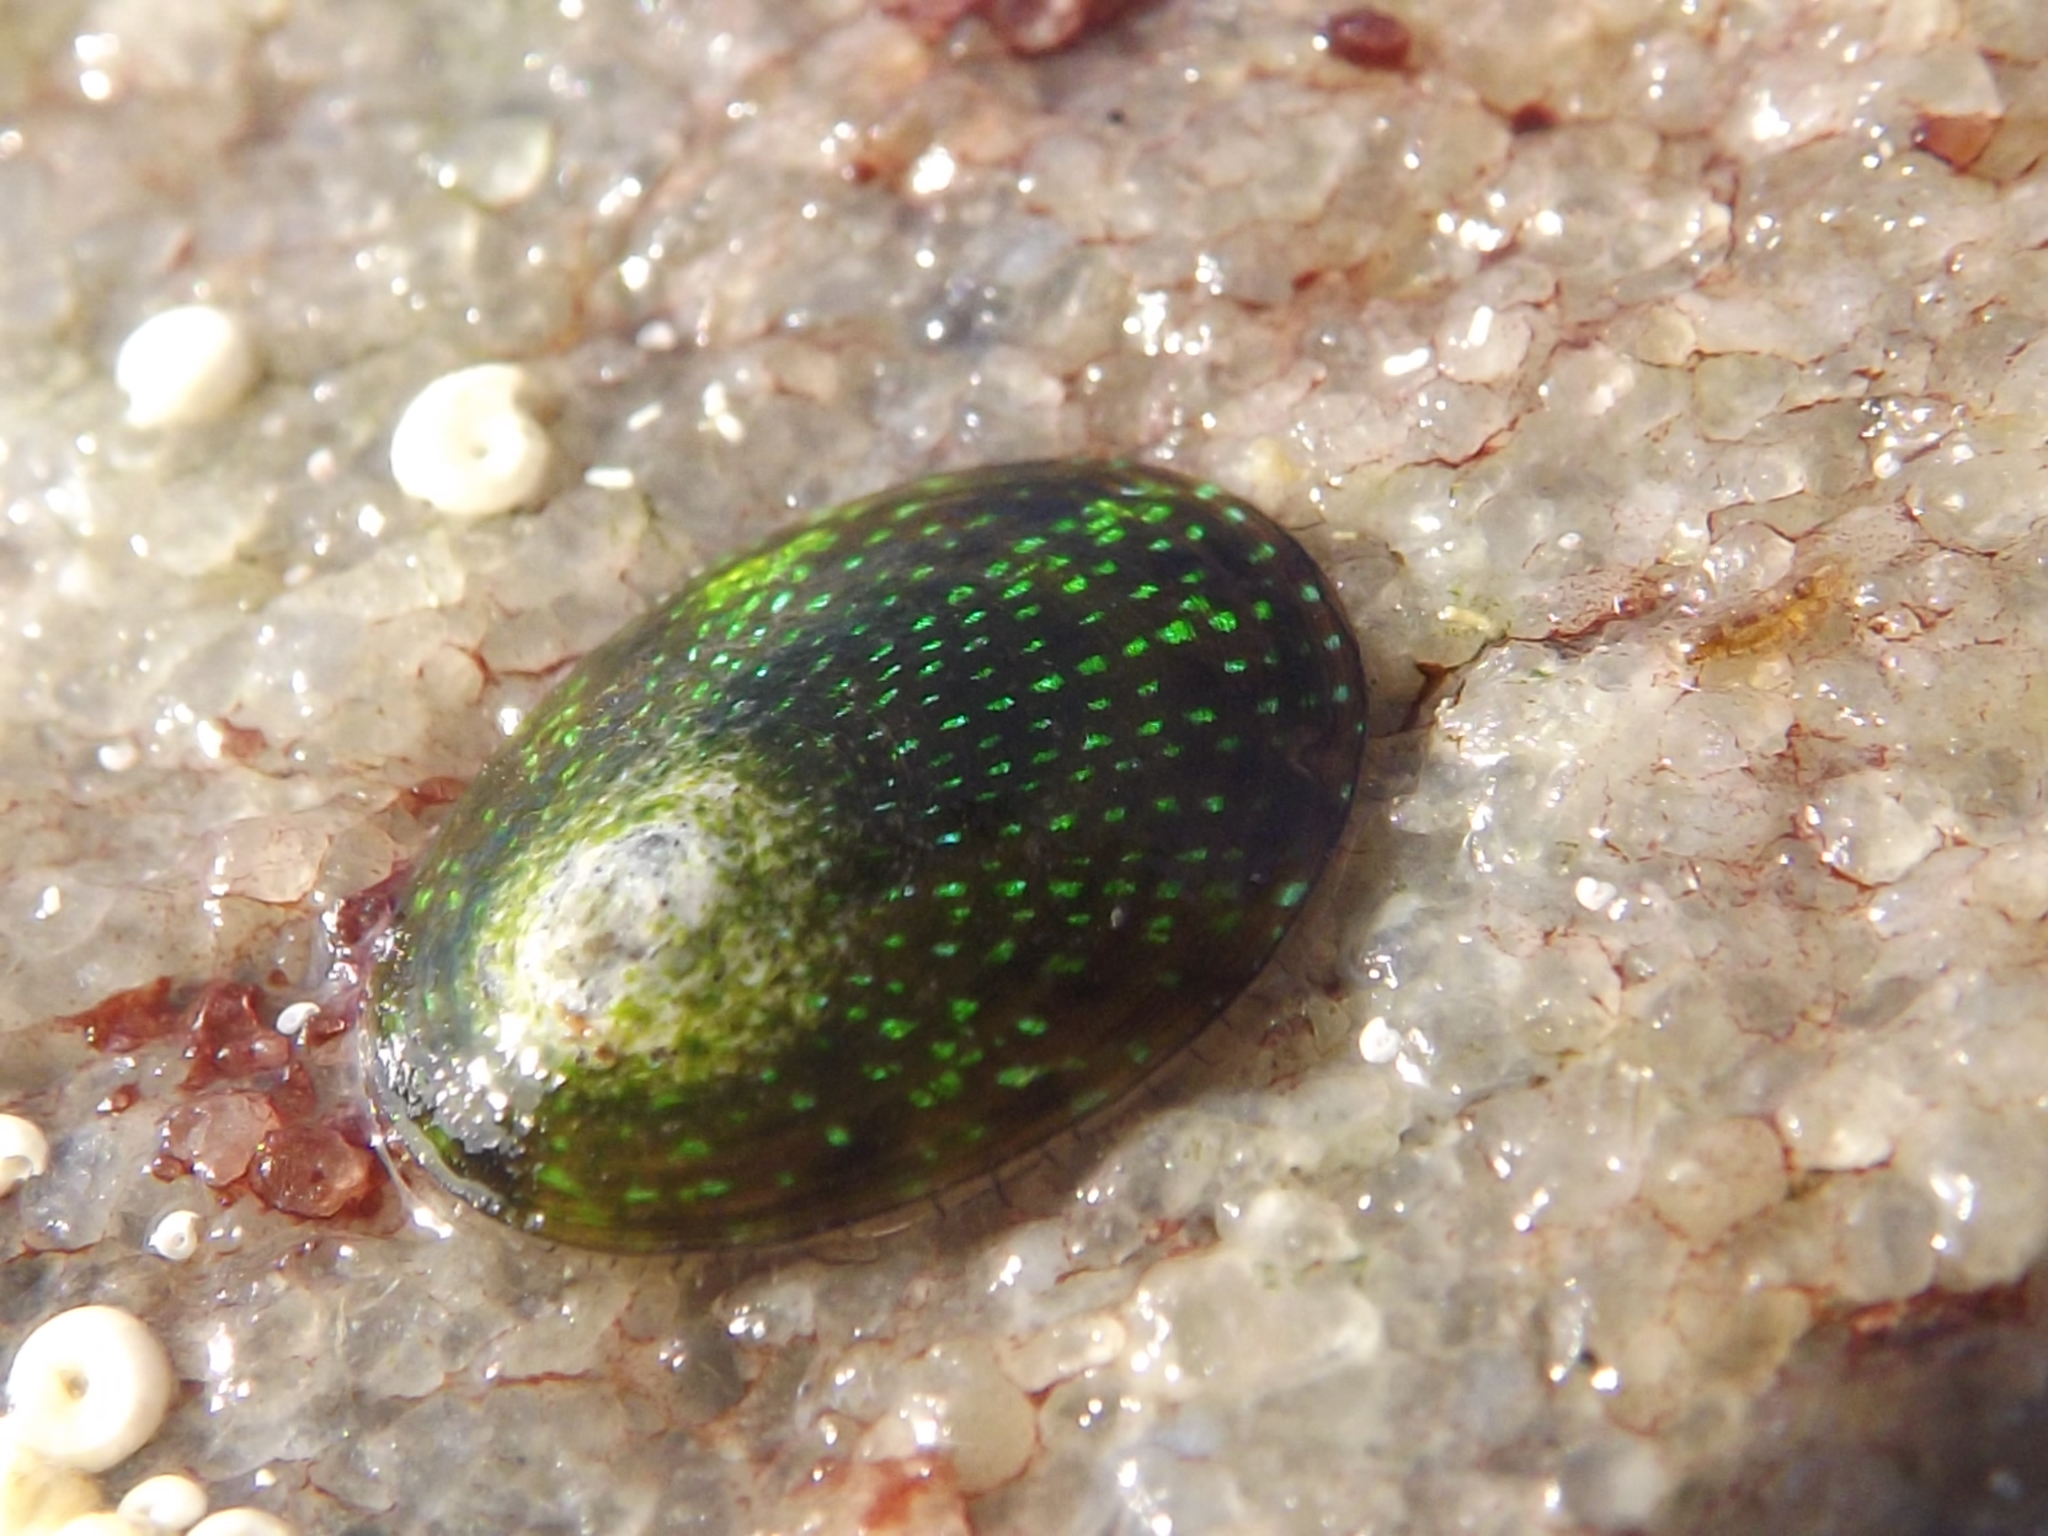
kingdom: Animalia
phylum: Mollusca
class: Gastropoda
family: Patellidae
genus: Helcion
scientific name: Helcion pruinosus
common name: Rayed limpet
